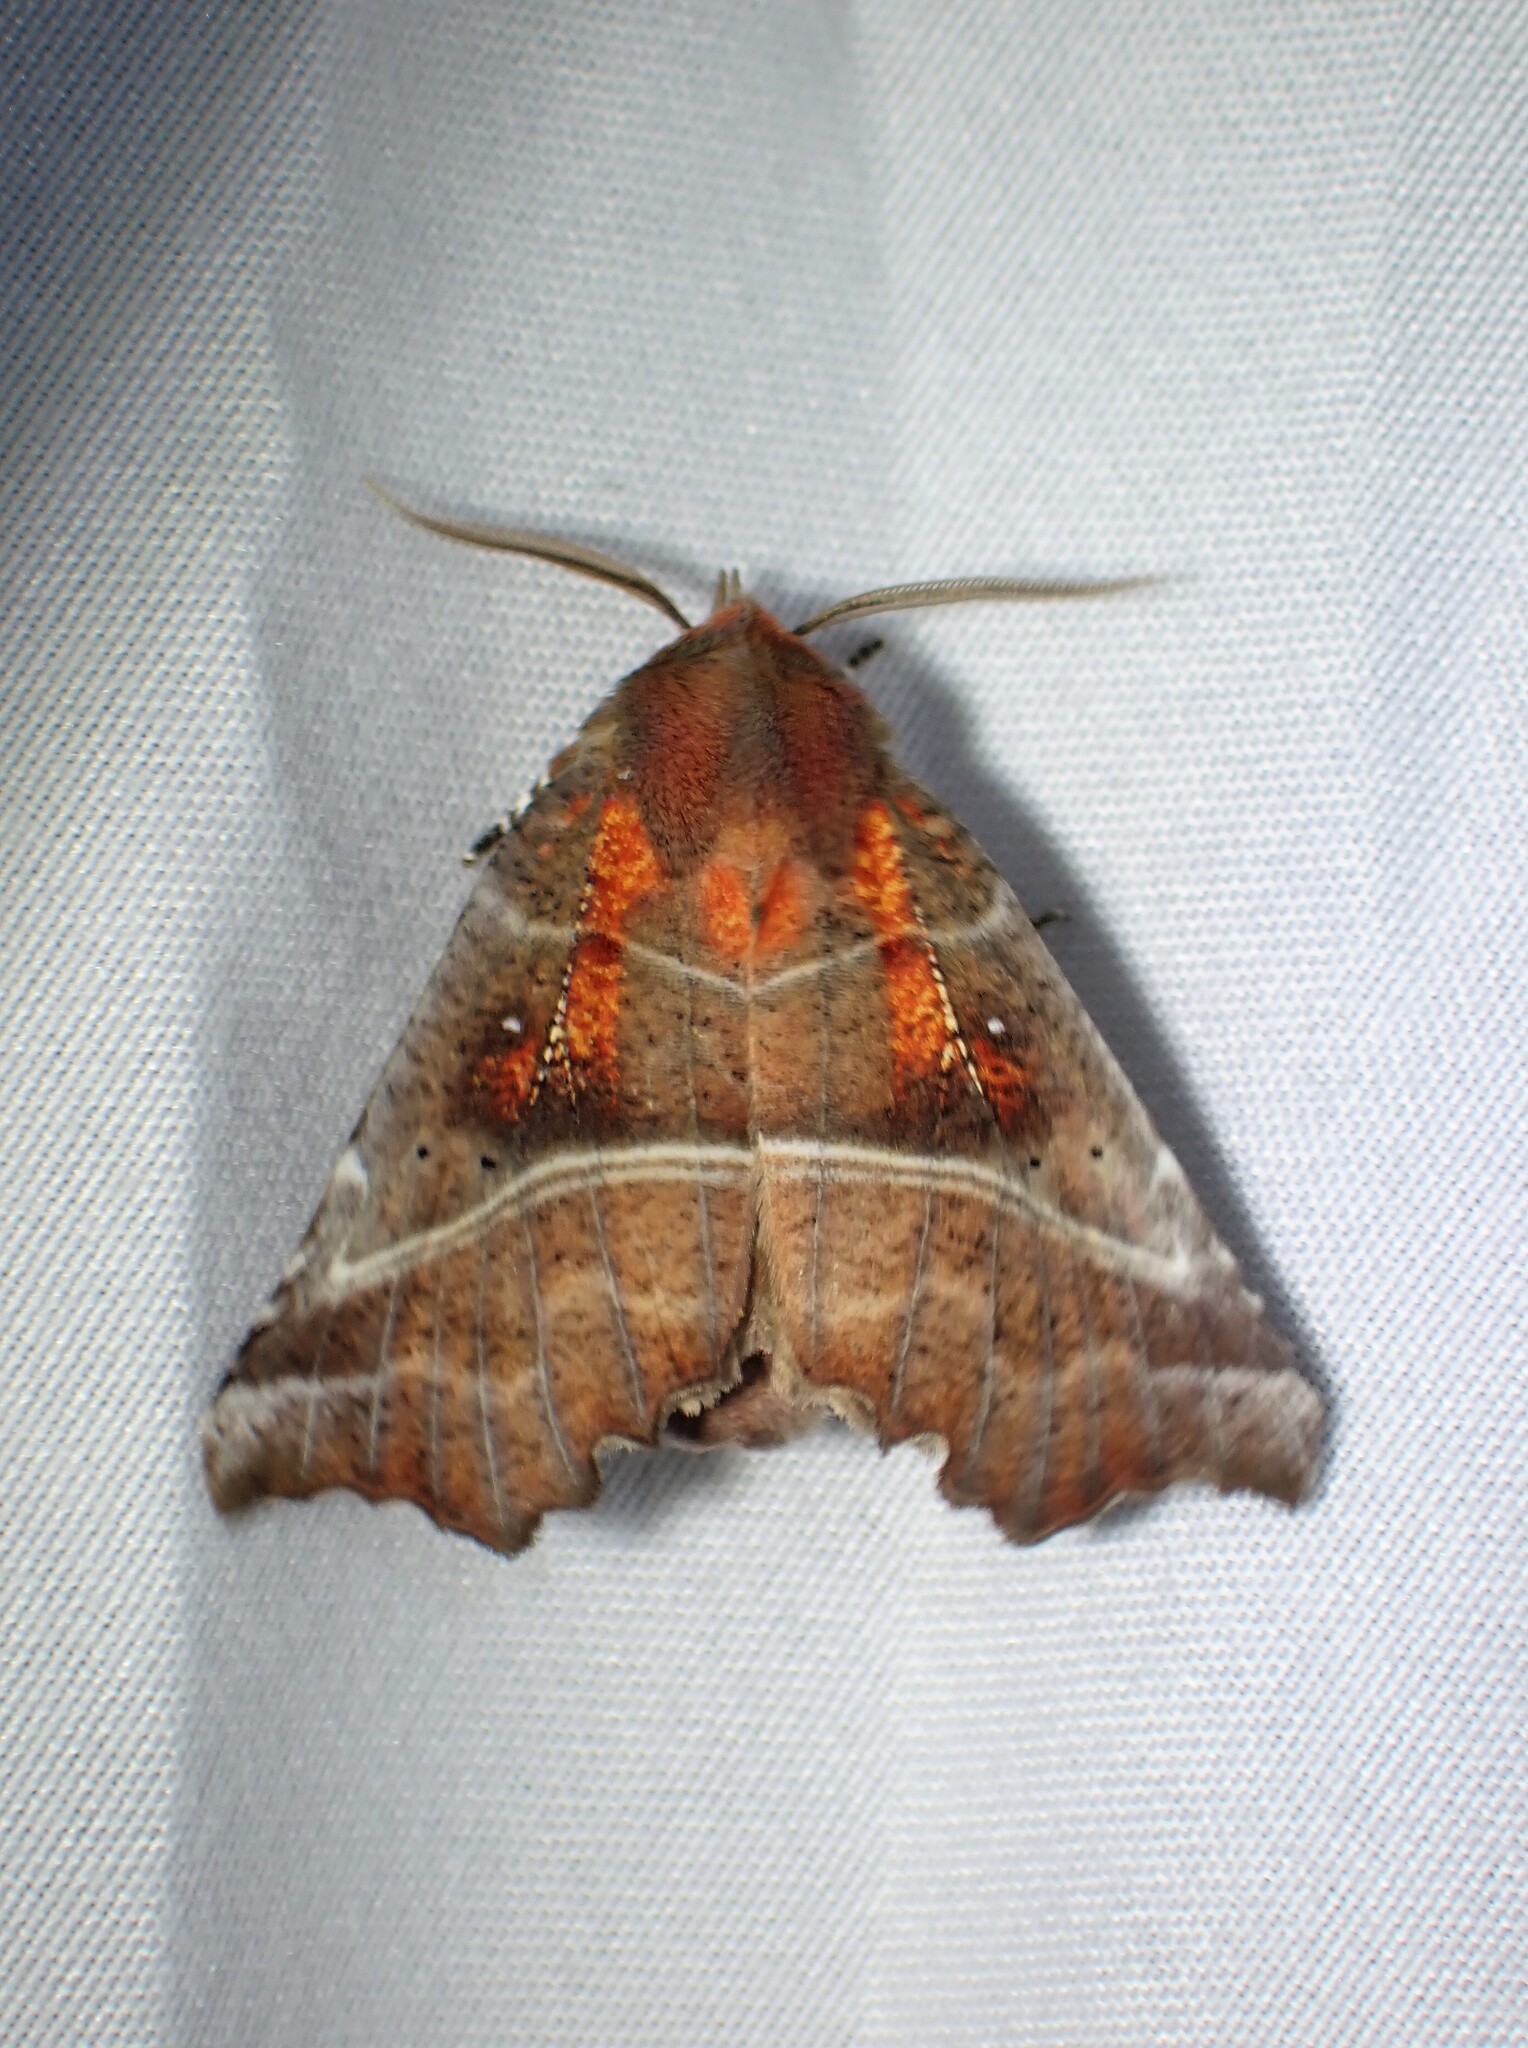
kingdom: Animalia
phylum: Arthropoda
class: Insecta
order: Lepidoptera
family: Erebidae
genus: Scoliopteryx
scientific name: Scoliopteryx libatrix
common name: Herald
